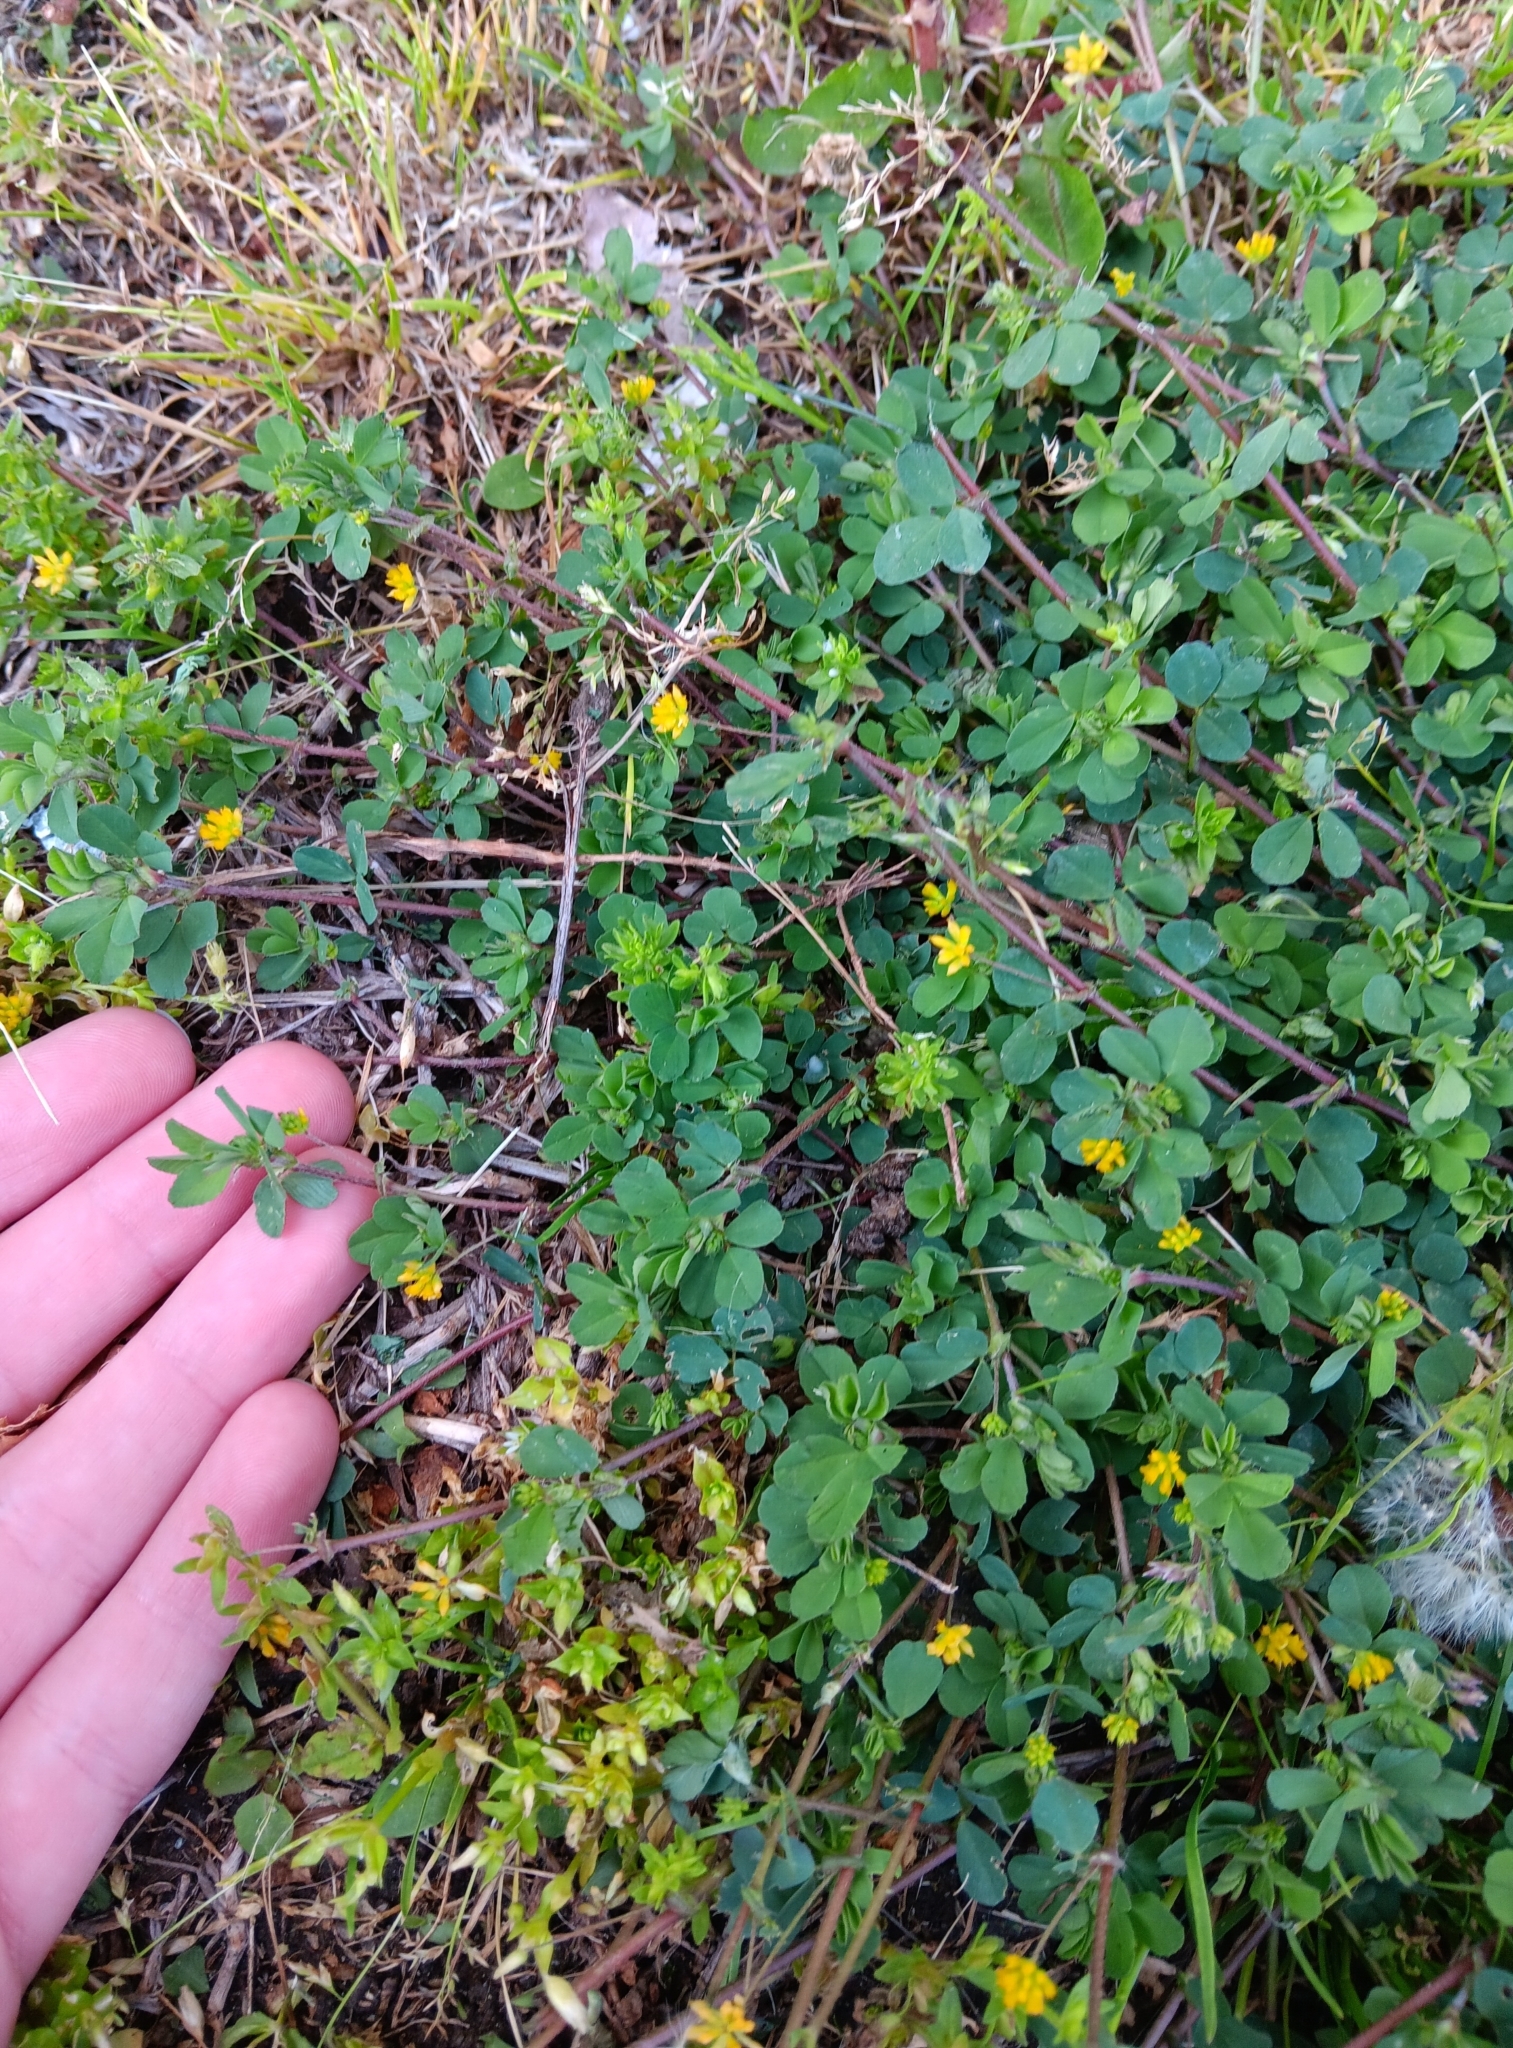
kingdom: Plantae
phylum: Tracheophyta
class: Magnoliopsida
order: Fabales
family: Fabaceae
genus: Trifolium
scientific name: Trifolium dubium
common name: Suckling clover
